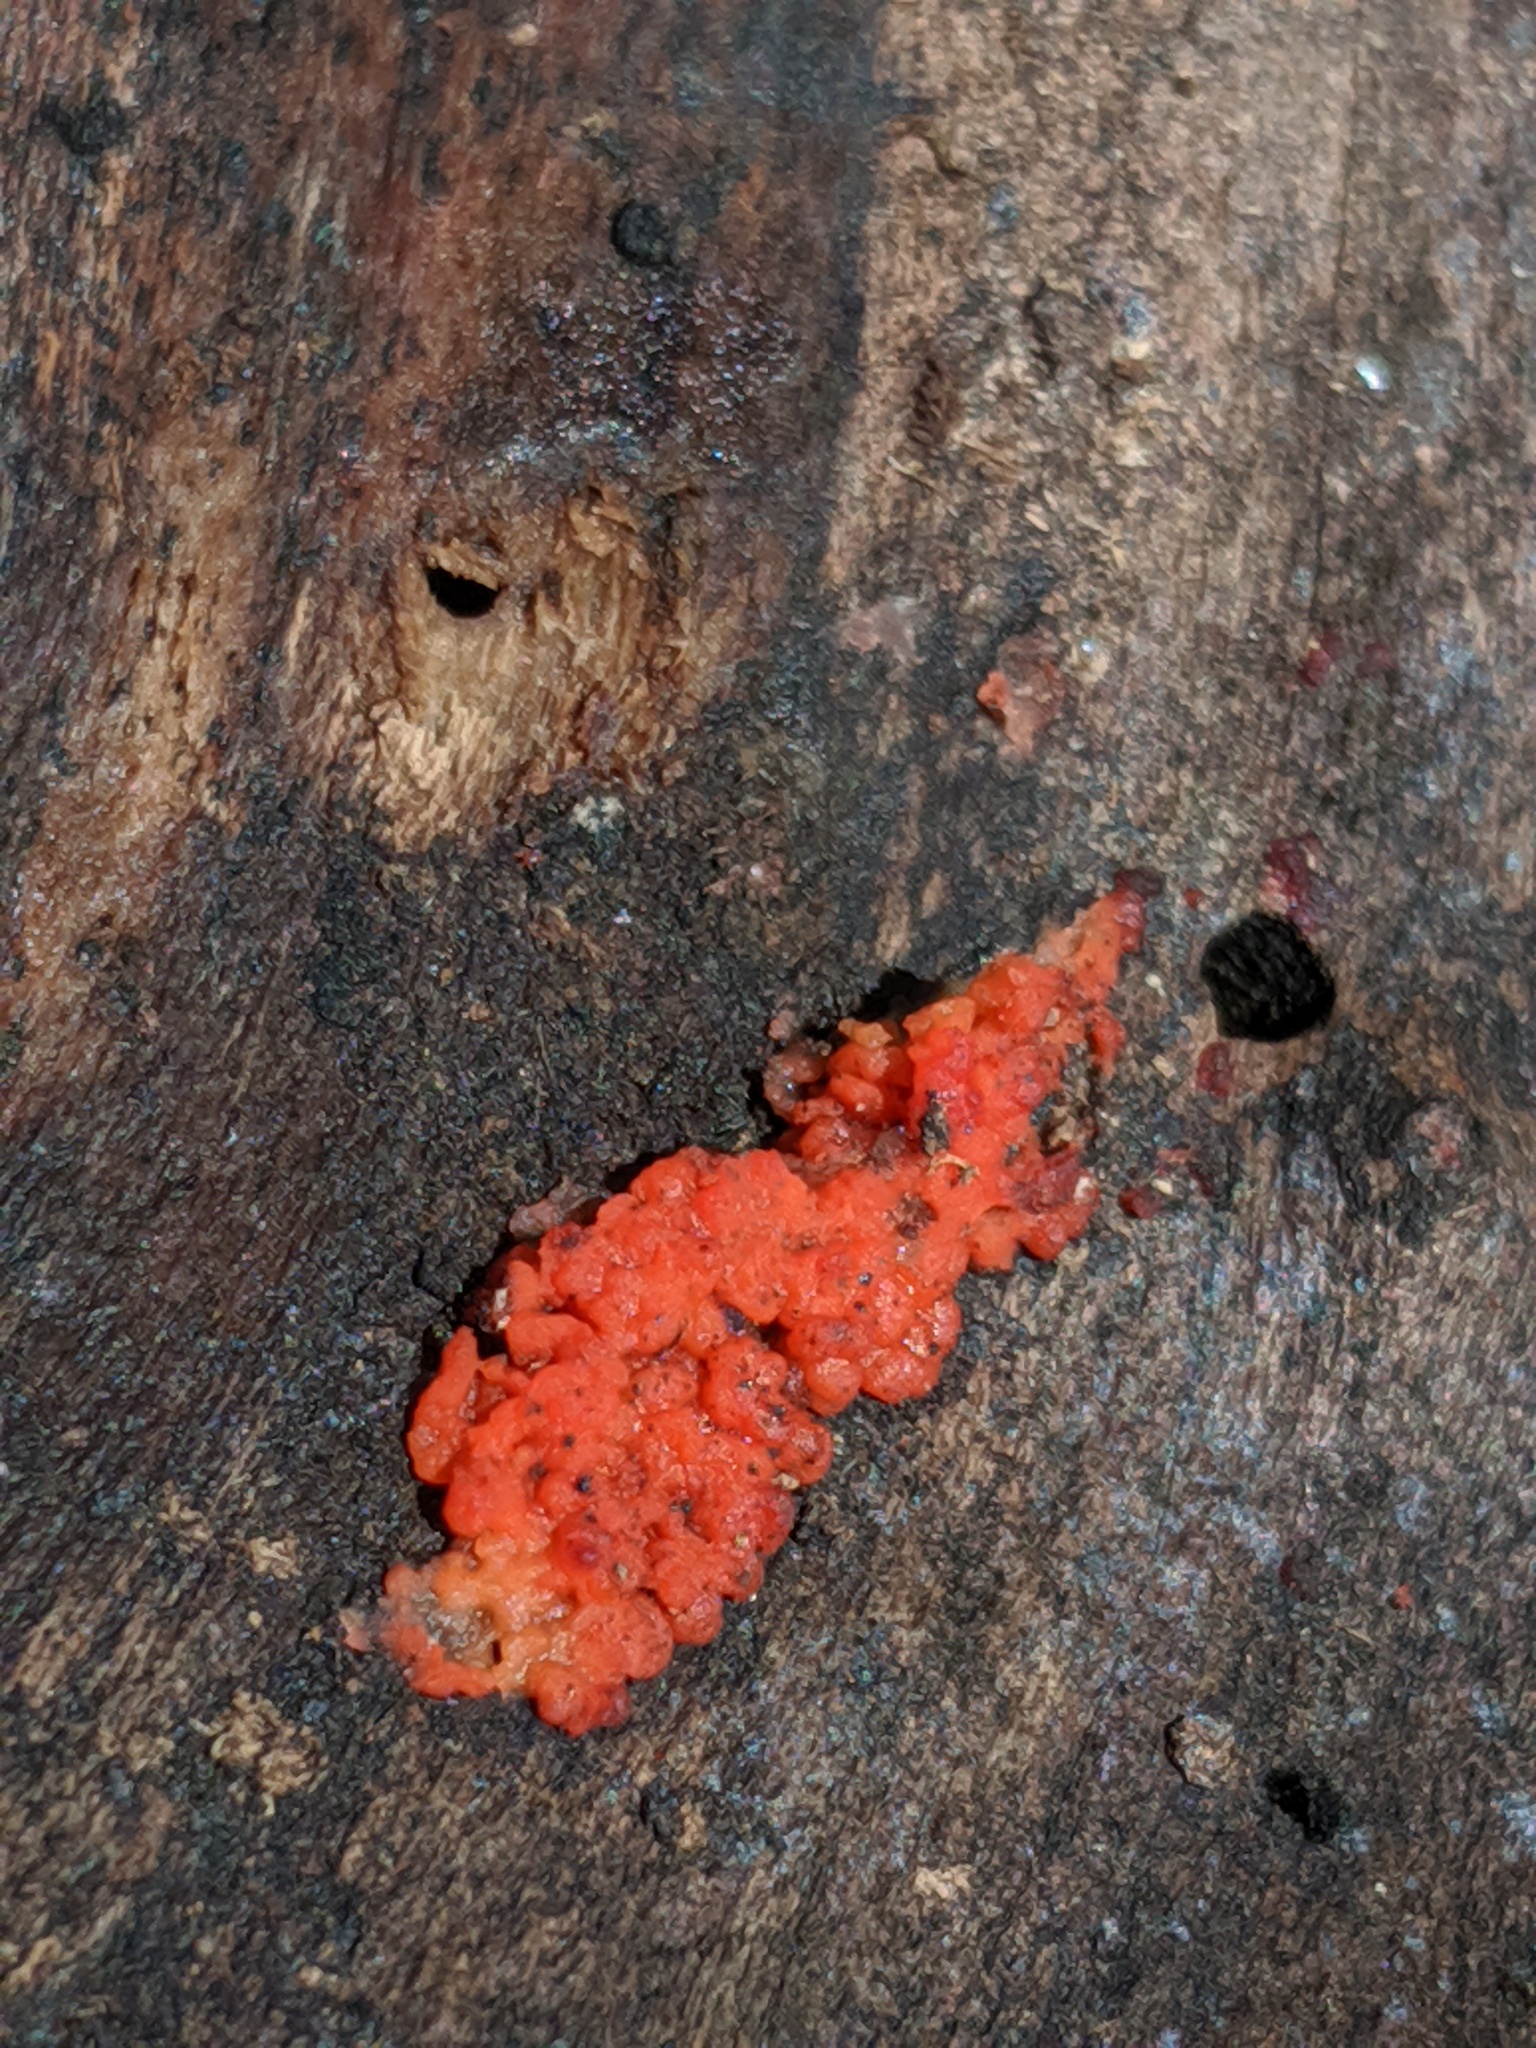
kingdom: Fungi
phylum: Basidiomycota
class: Agaricomycetes
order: Cantharellales
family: Tulasnellaceae
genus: Tulasnella
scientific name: Tulasnella aurantiaca
